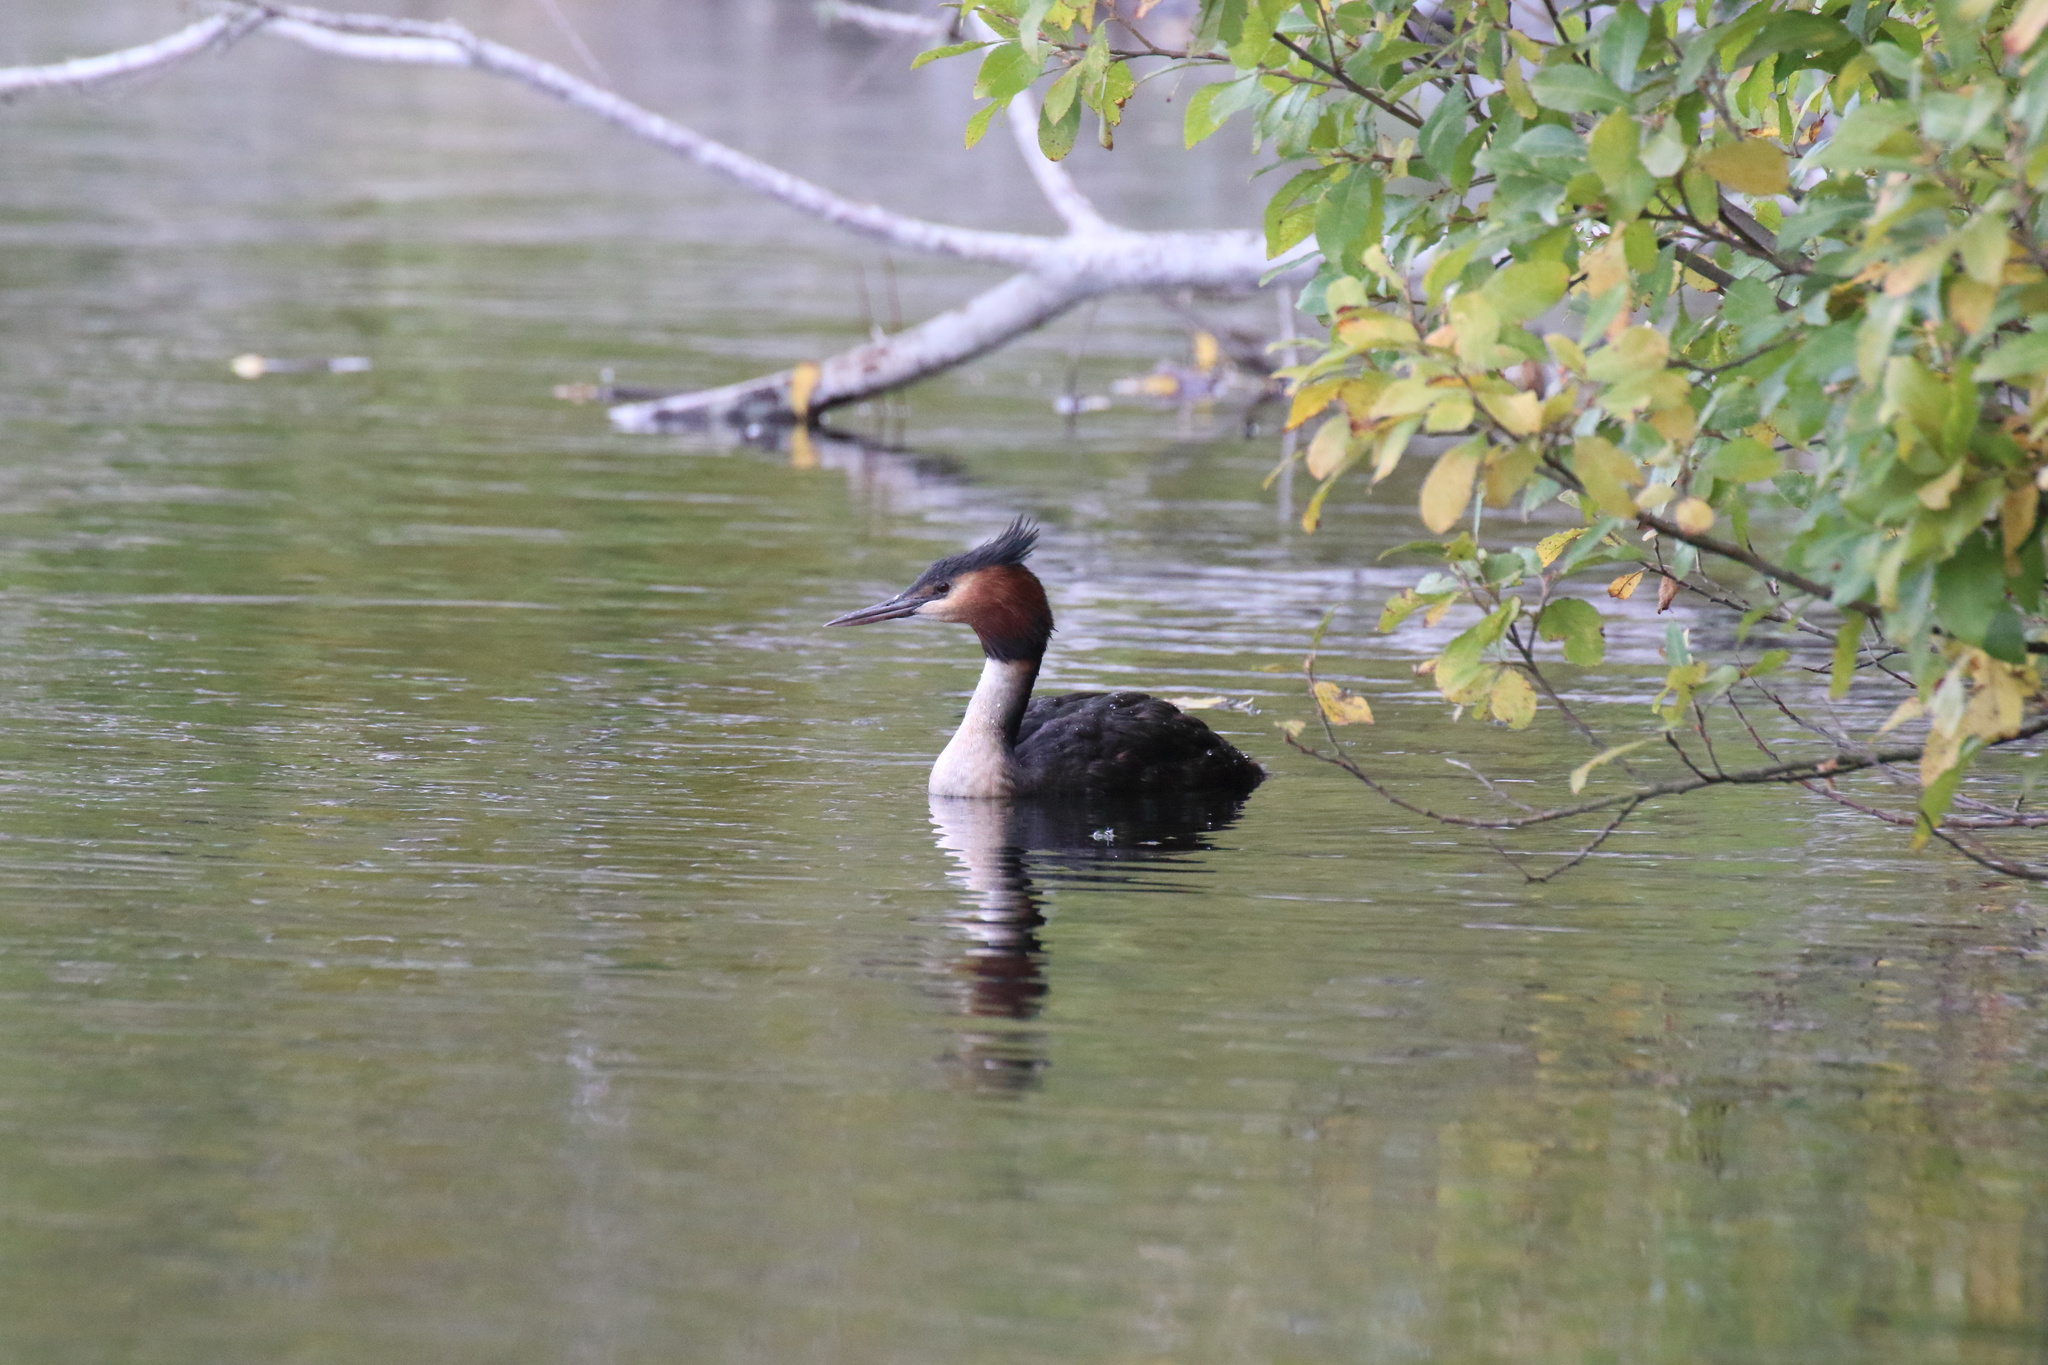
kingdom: Animalia
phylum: Chordata
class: Aves
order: Podicipediformes
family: Podicipedidae
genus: Podiceps
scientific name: Podiceps cristatus
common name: Great crested grebe
